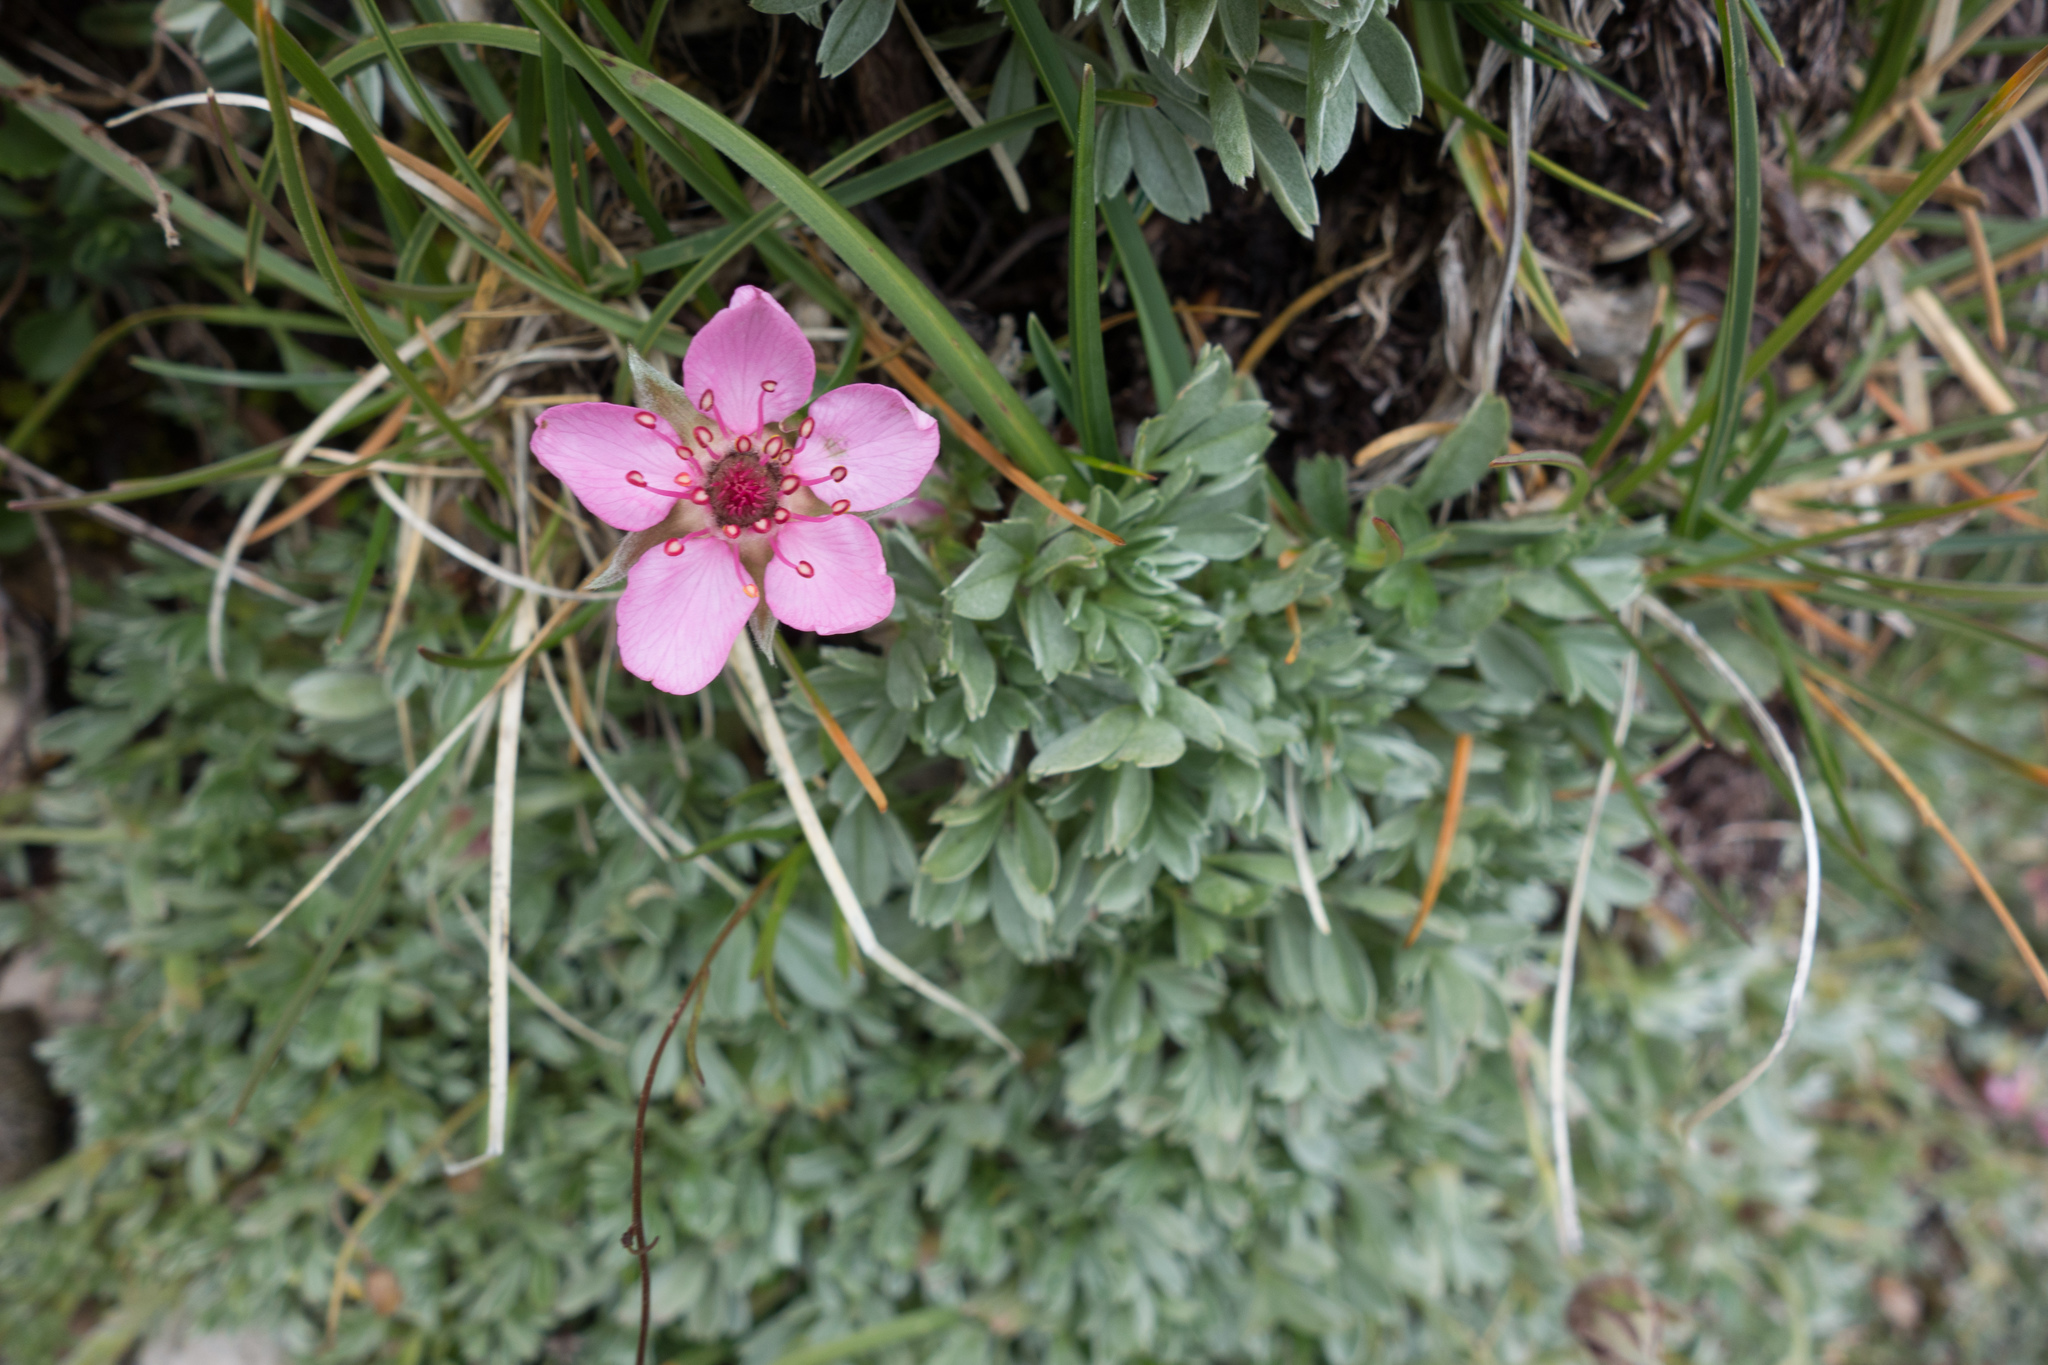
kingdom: Plantae
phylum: Tracheophyta
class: Magnoliopsida
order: Rosales
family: Rosaceae
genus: Potentilla
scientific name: Potentilla nitida
